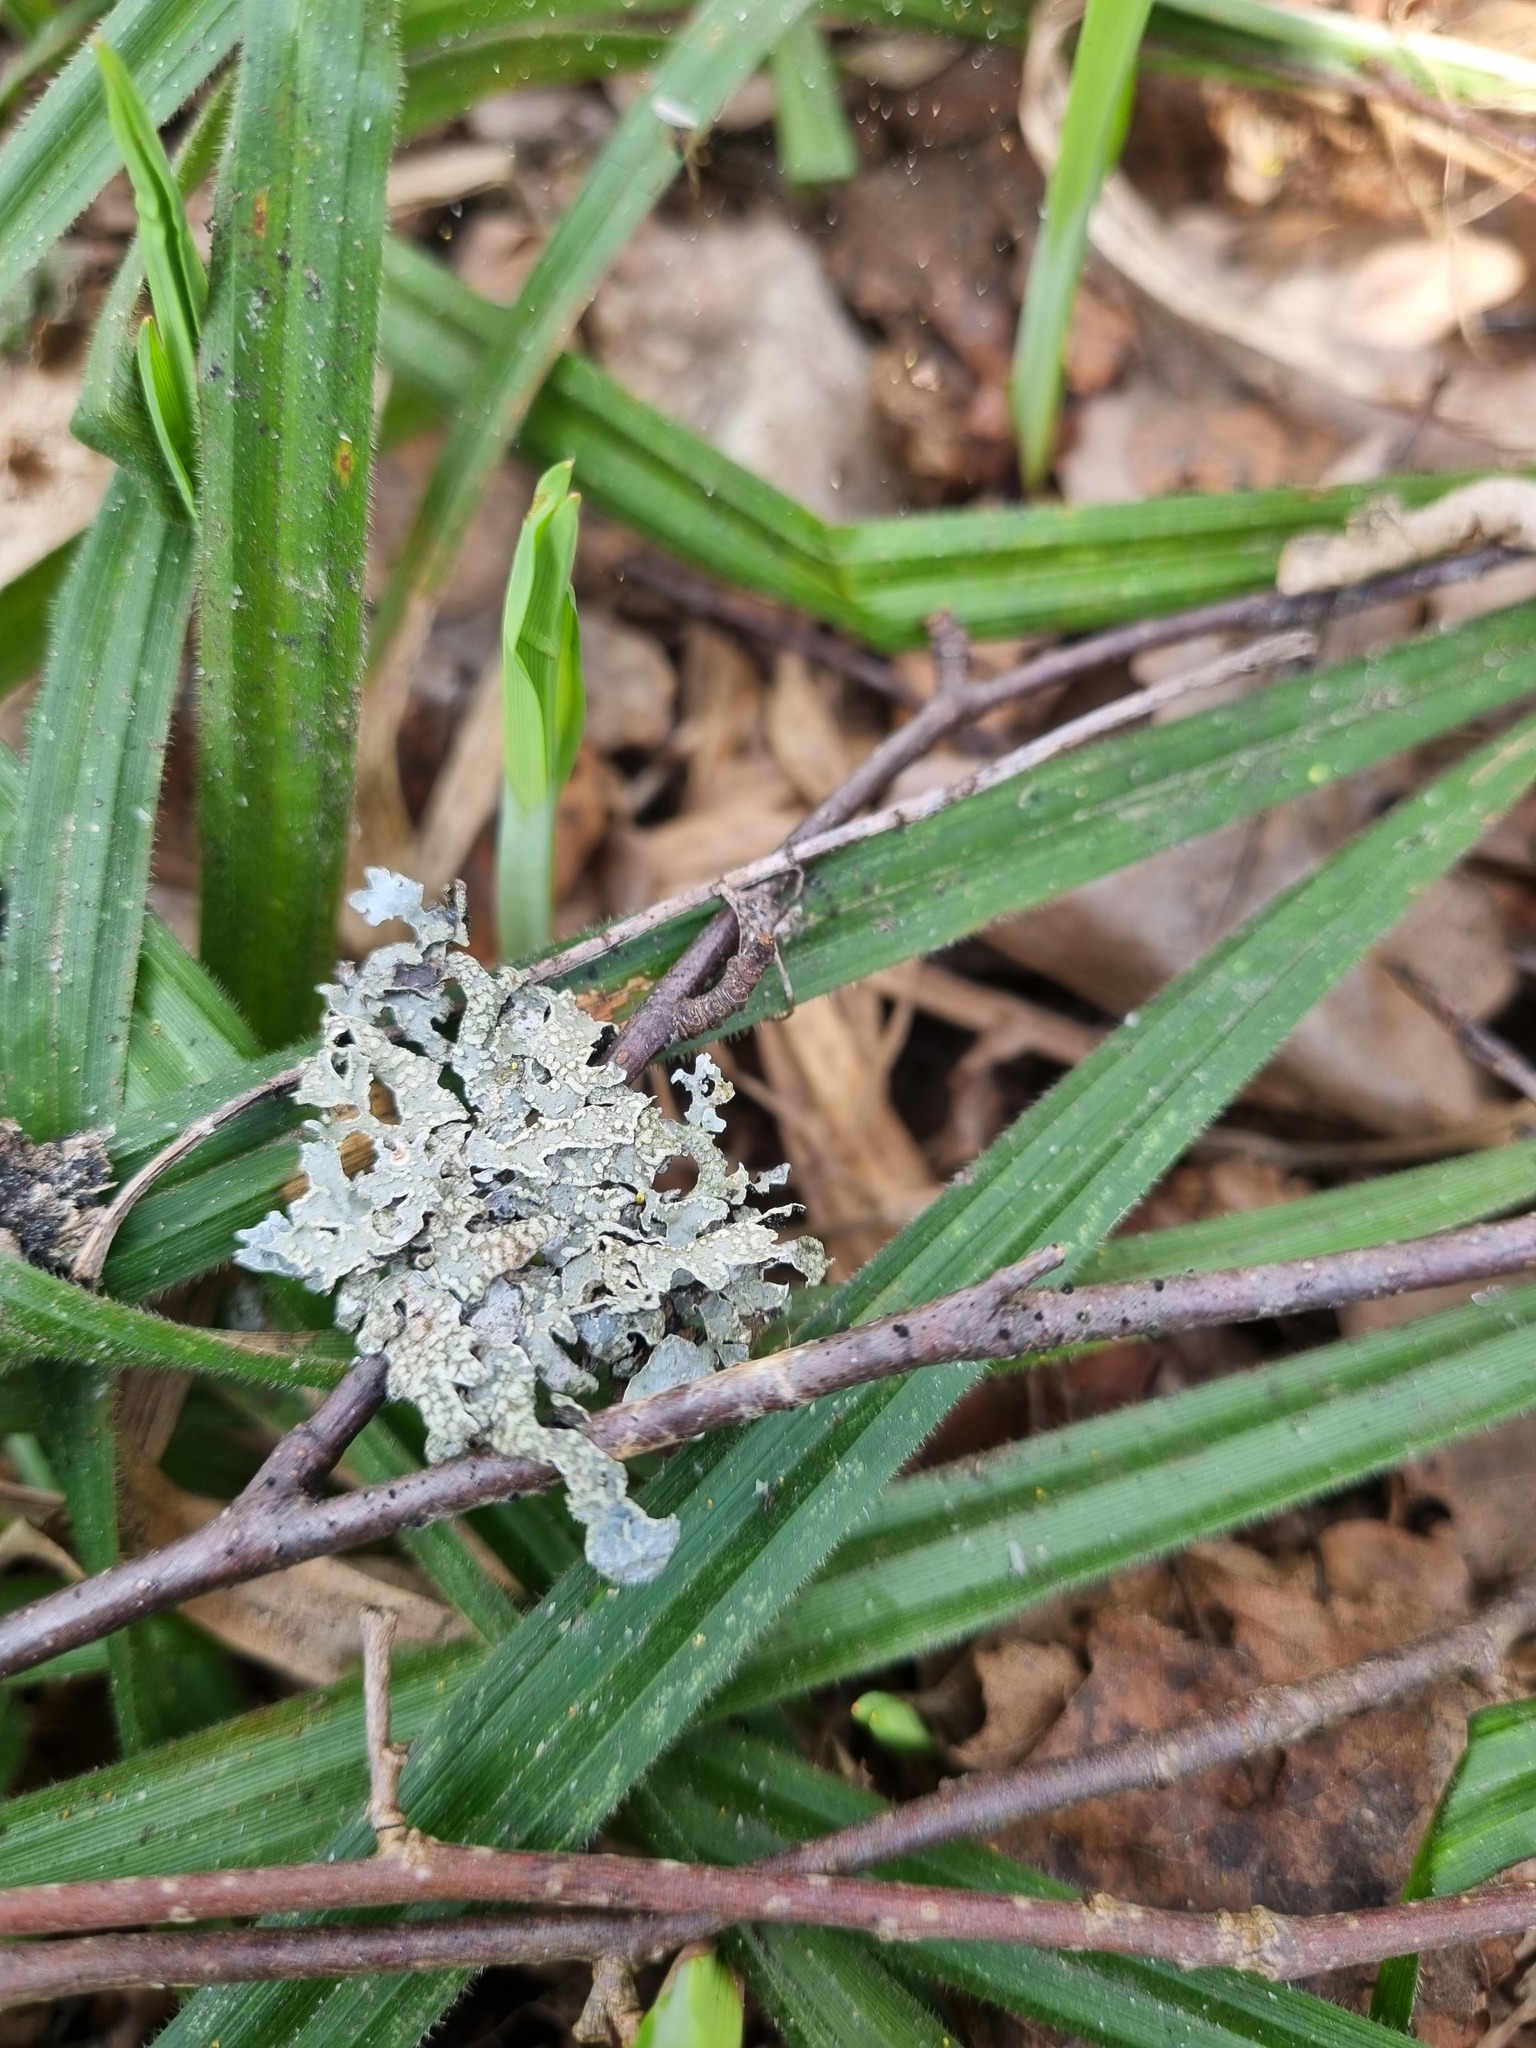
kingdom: Fungi
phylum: Ascomycota
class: Lecanoromycetes
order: Lecanorales
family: Parmeliaceae
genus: Parmelia
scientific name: Parmelia sulcata
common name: Netted shield lichen
